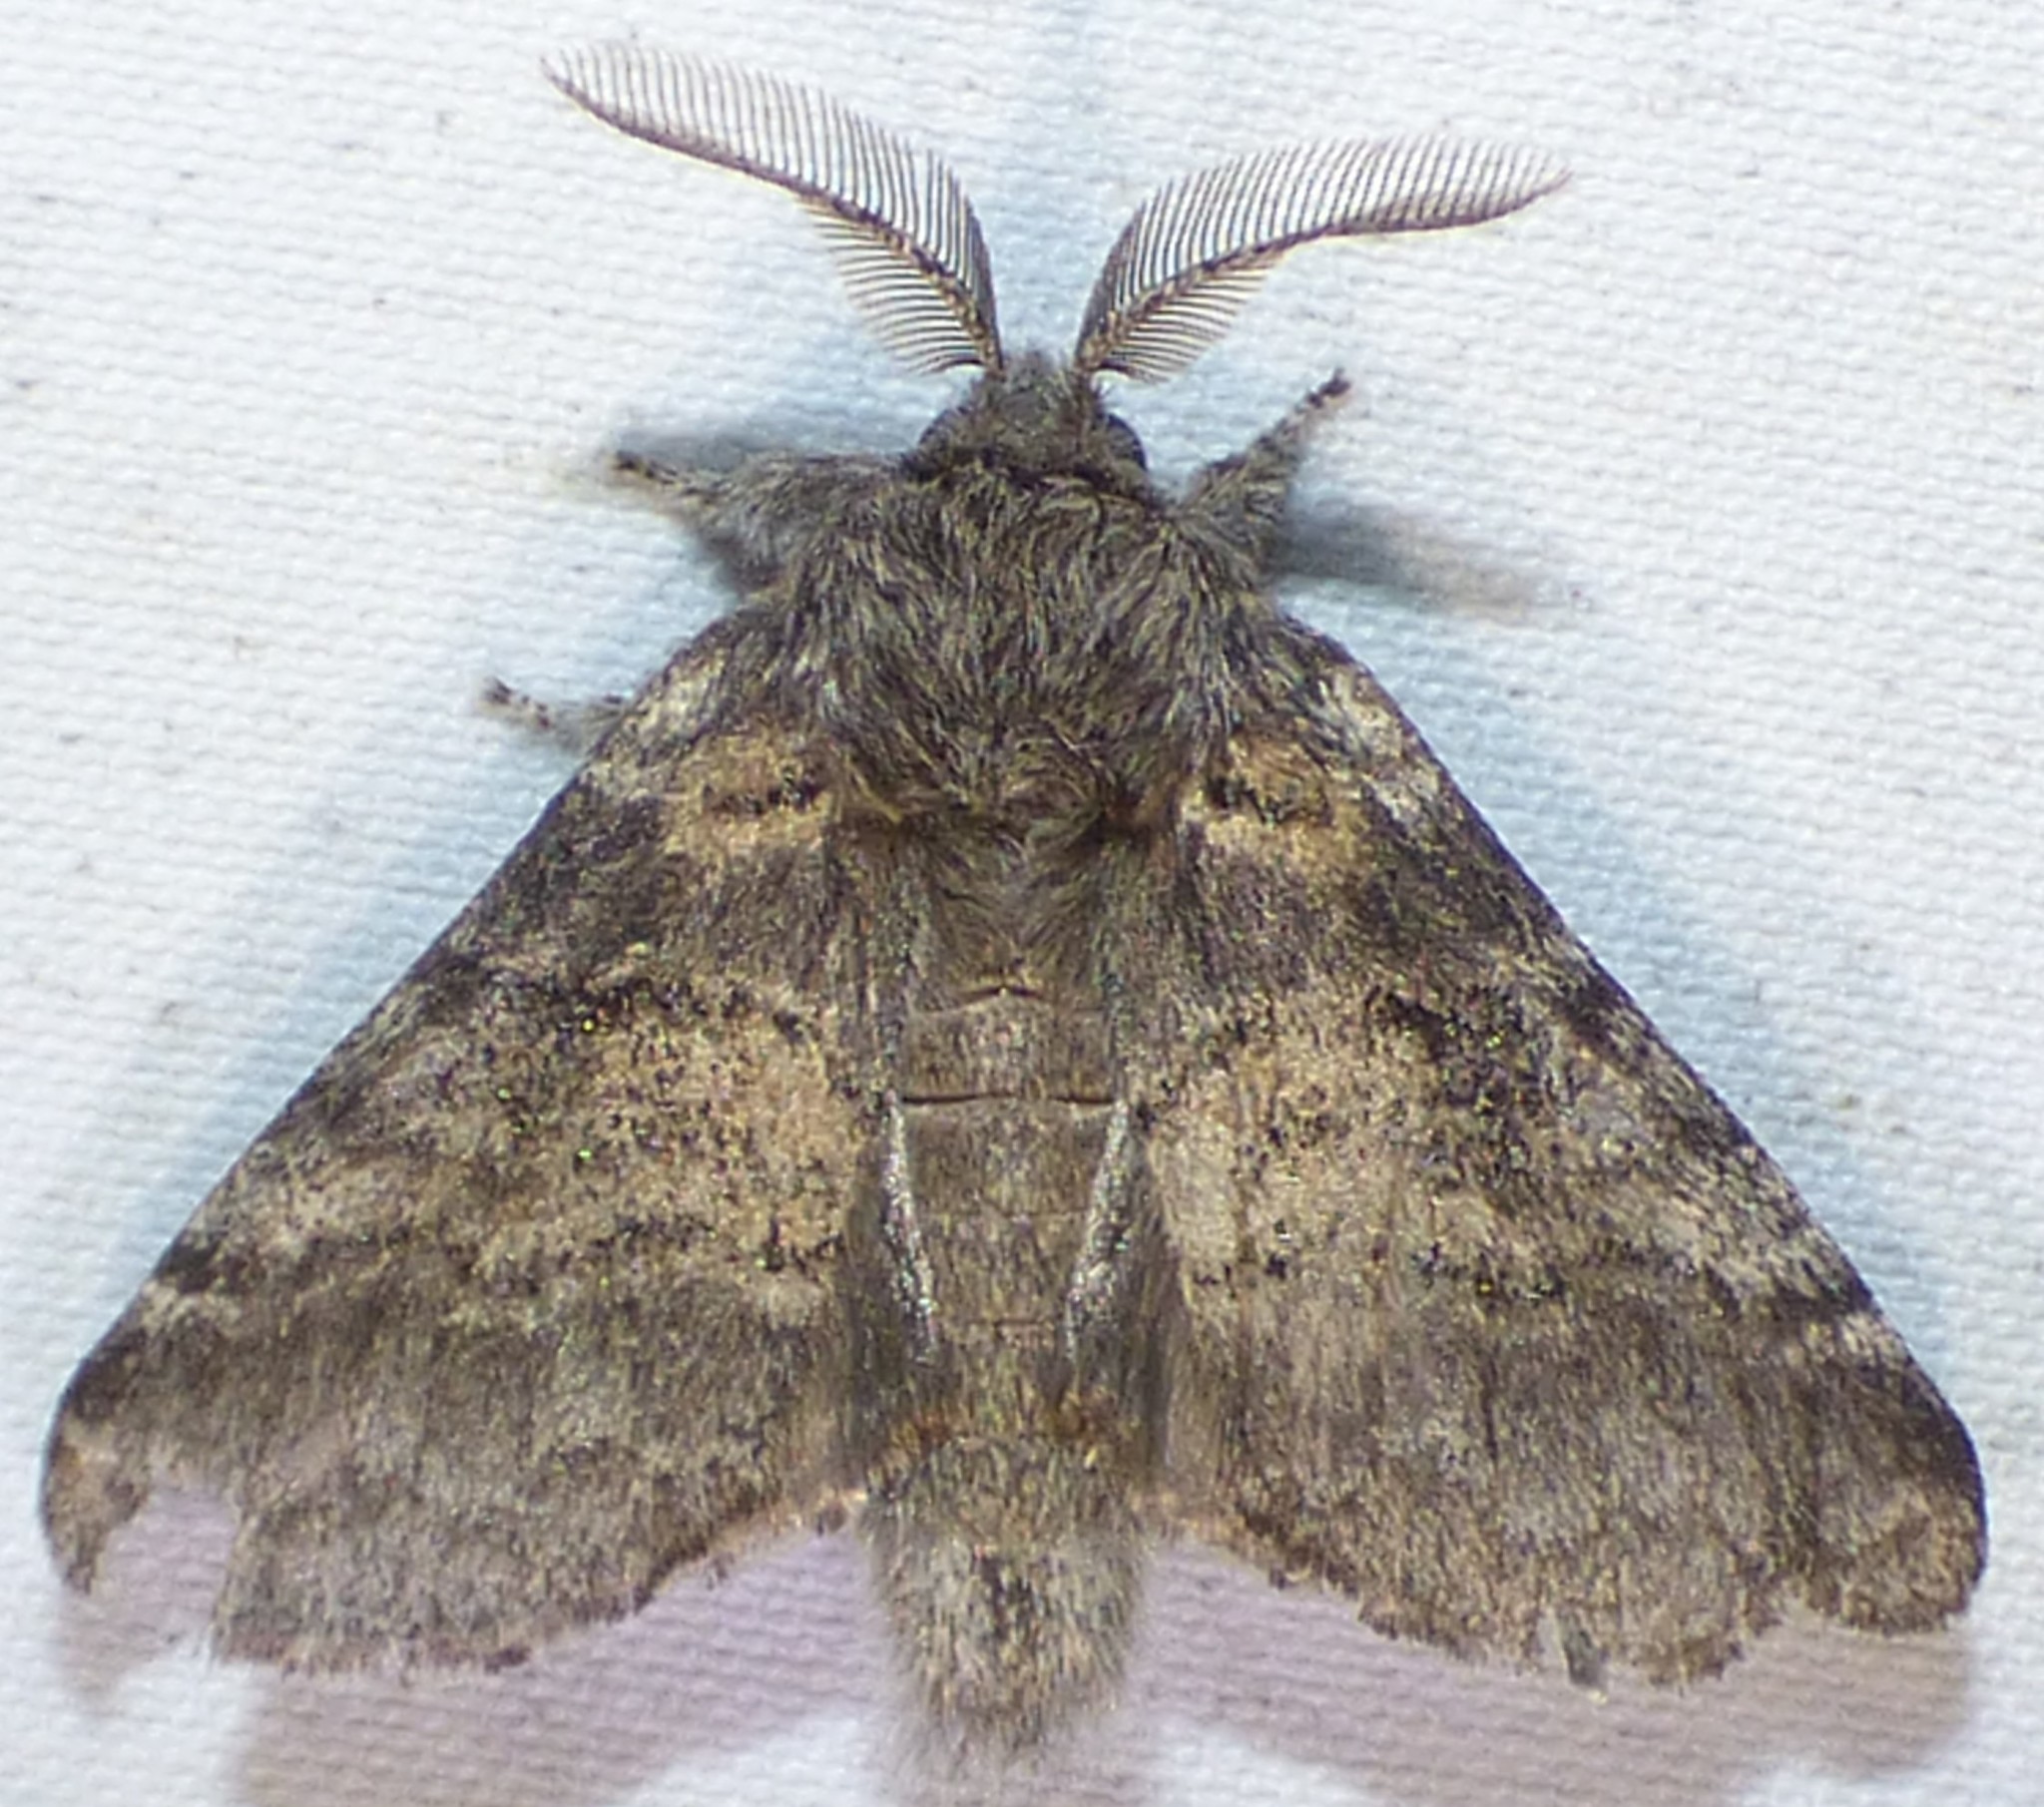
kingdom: Animalia
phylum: Arthropoda
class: Insecta
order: Lepidoptera
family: Notodontidae
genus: Gluphisia
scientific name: Gluphisia septentrionis
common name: Common gluphisia
